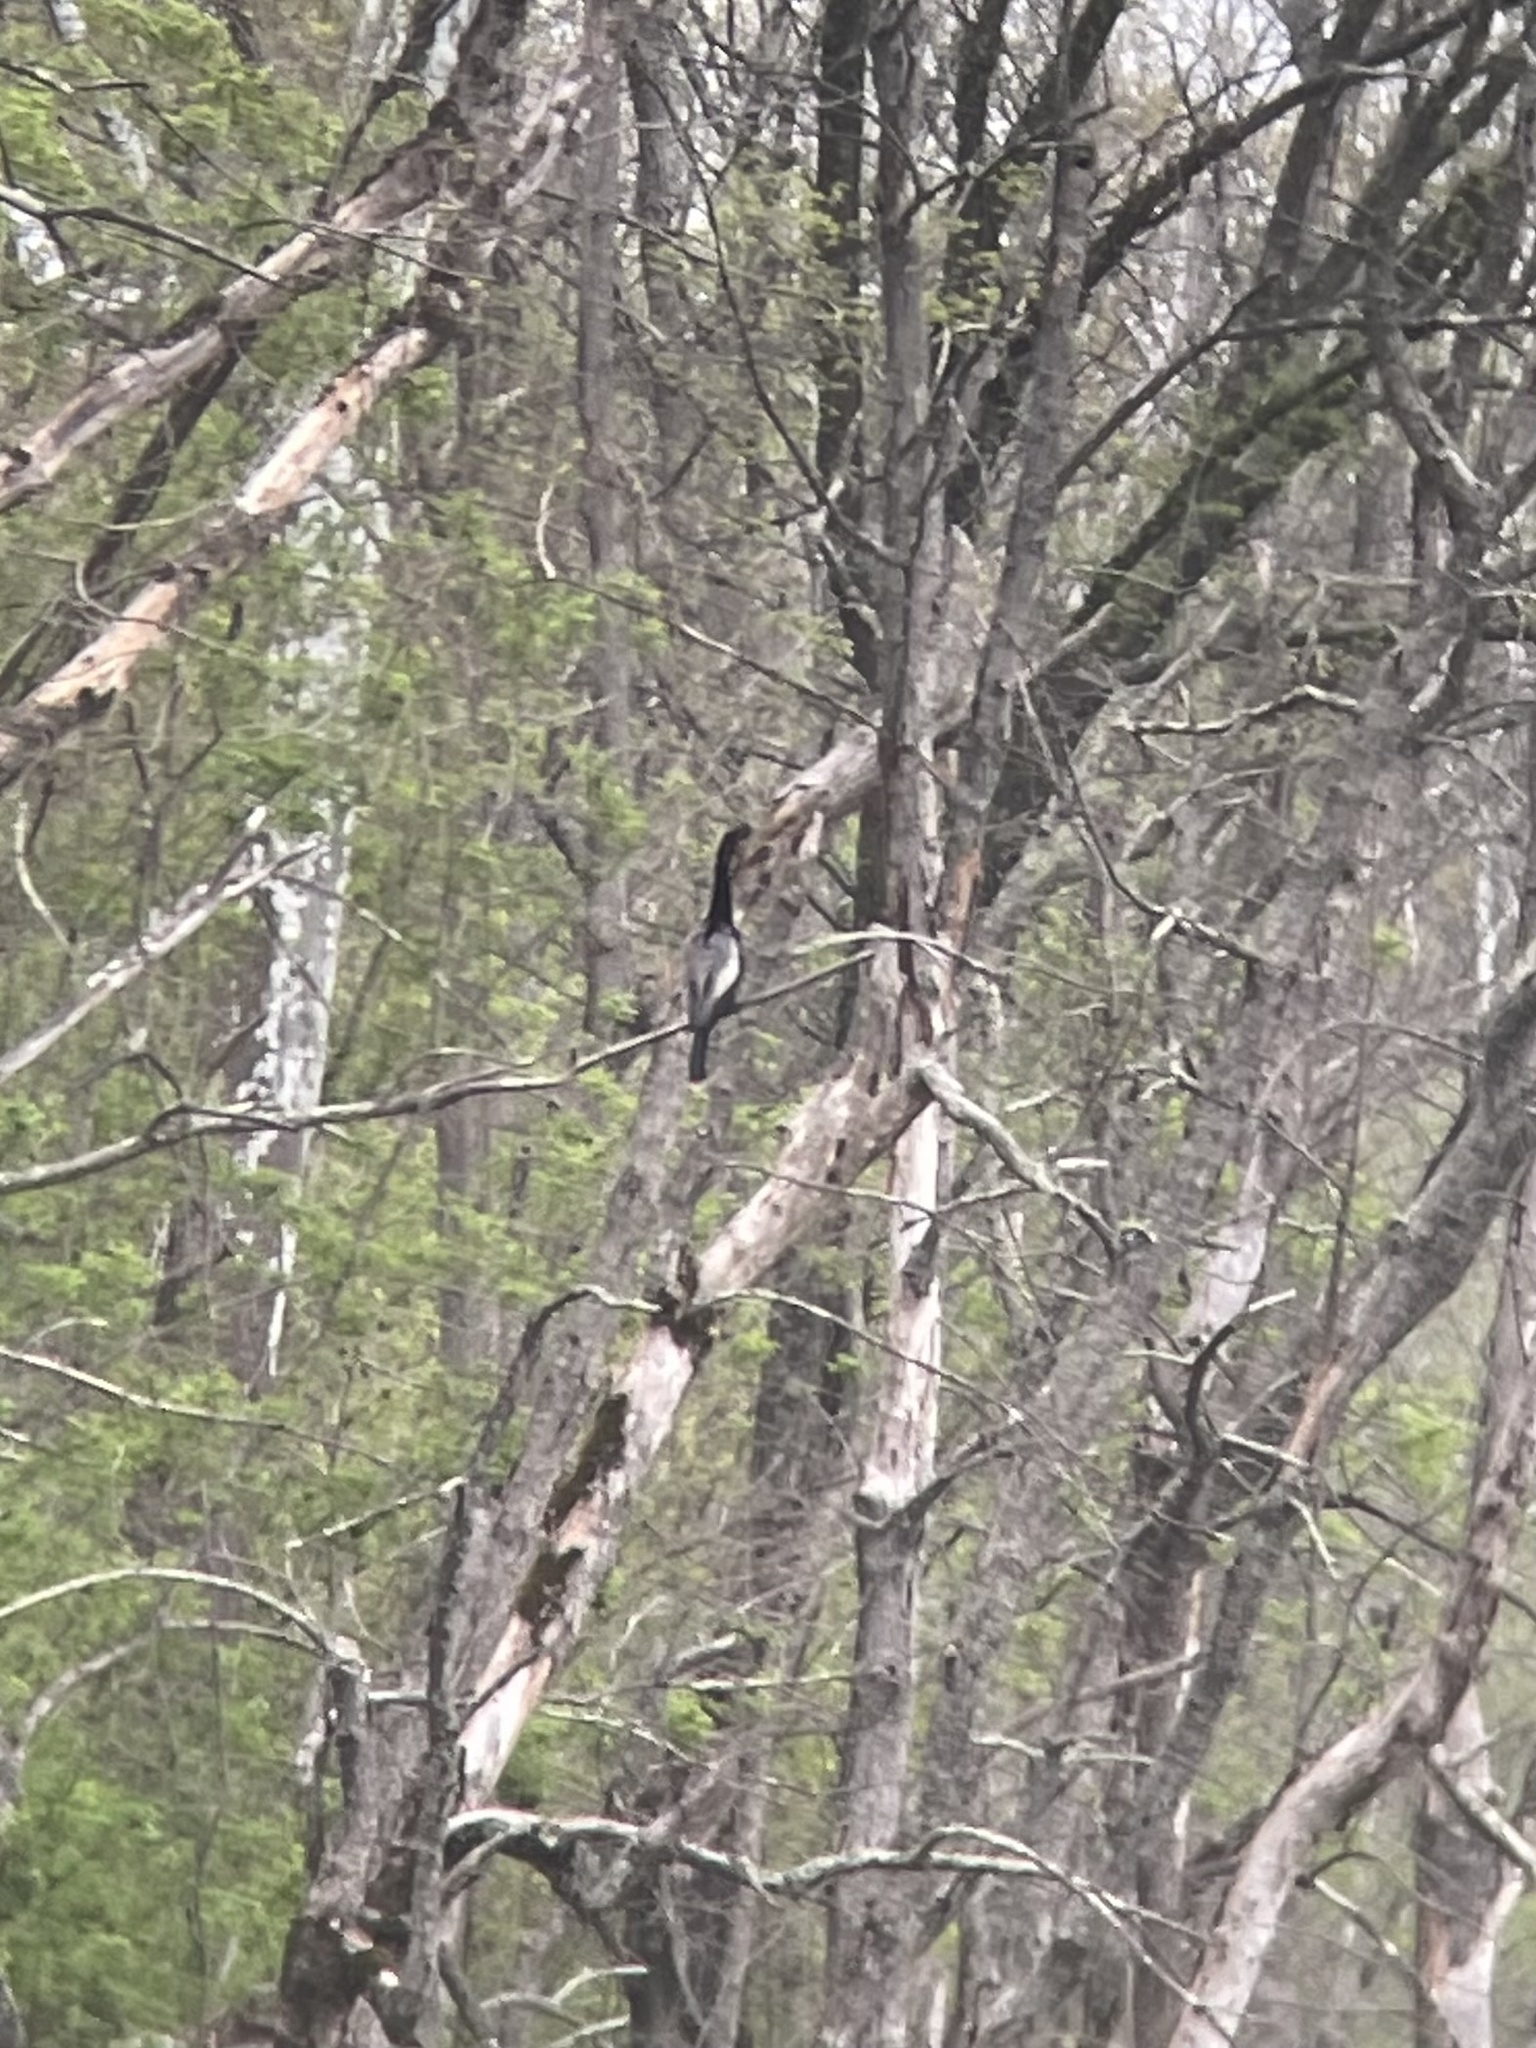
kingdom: Animalia
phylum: Chordata
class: Aves
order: Suliformes
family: Anhingidae
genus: Anhinga
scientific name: Anhinga anhinga
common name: Anhinga
